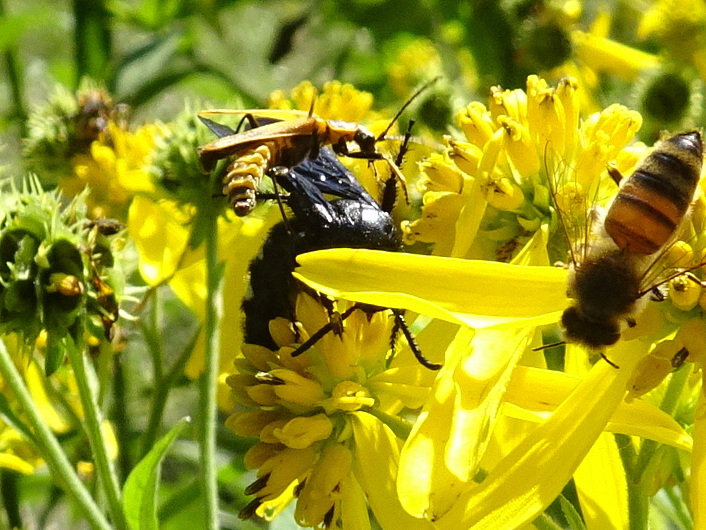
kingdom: Animalia
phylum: Arthropoda
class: Insecta
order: Hymenoptera
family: Scoliidae
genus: Scolia
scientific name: Scolia bicincta
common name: Double-banded scoliid wasp
